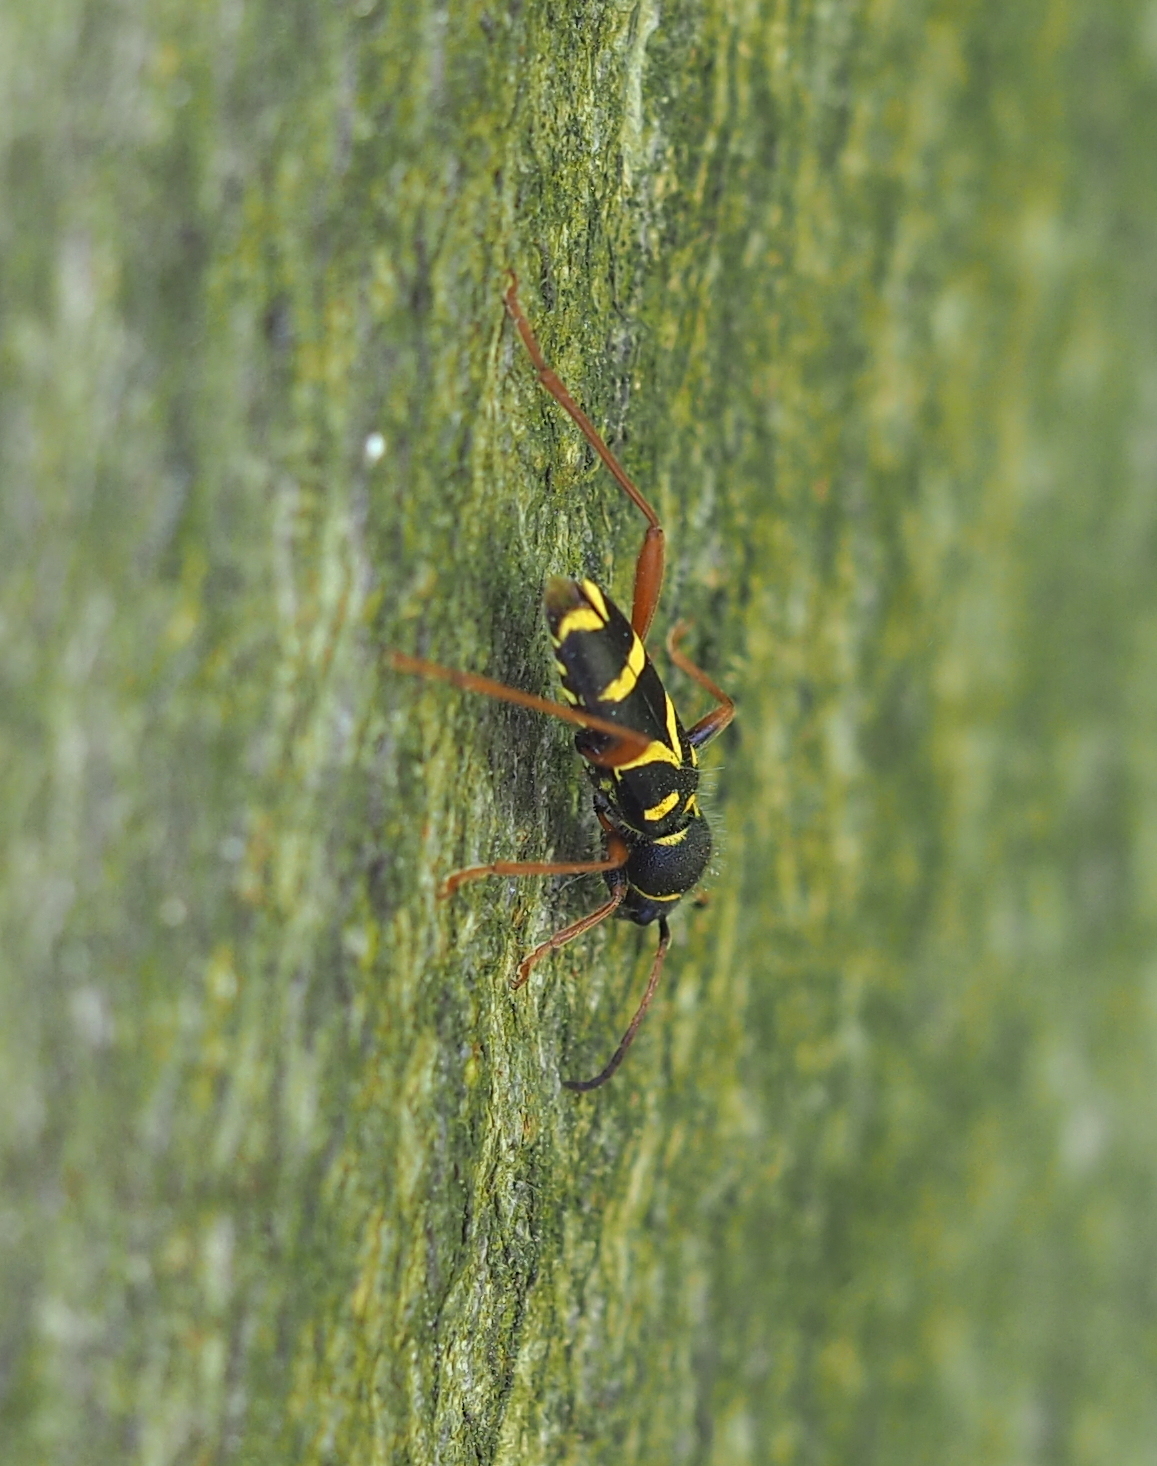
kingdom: Animalia
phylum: Arthropoda
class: Insecta
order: Coleoptera
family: Cerambycidae
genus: Clytus
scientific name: Clytus arietis
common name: Wasp beetle
